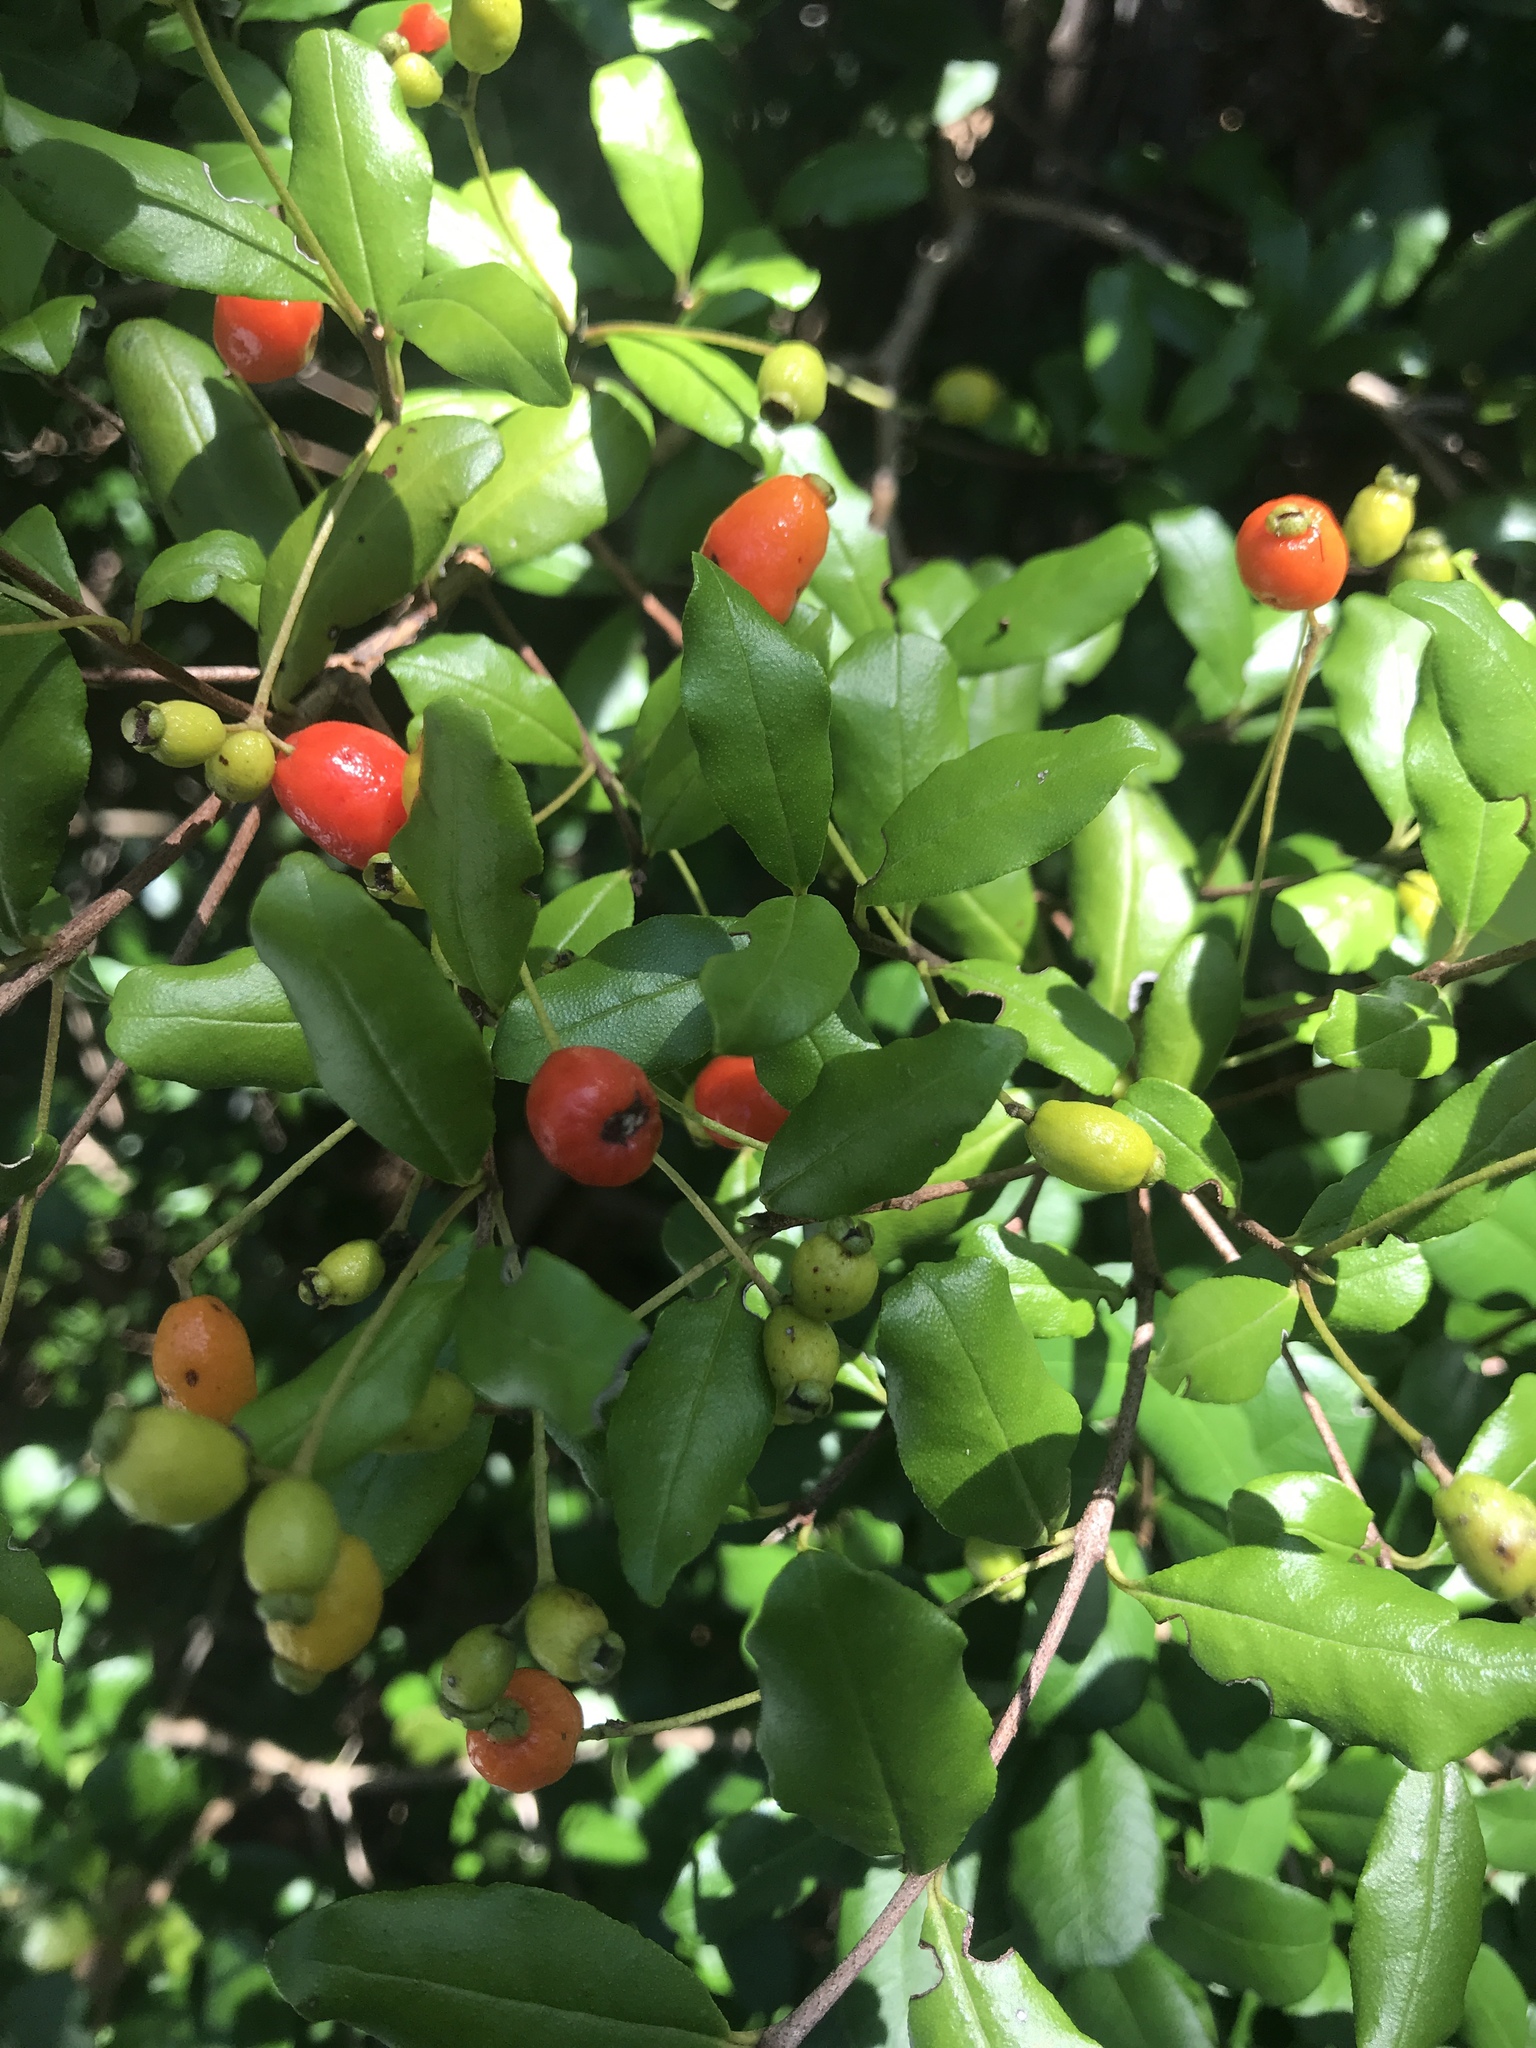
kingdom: Plantae
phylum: Tracheophyta
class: Magnoliopsida
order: Myrtales
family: Myrtaceae
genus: Myrcianthes
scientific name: Myrcianthes fragrans
